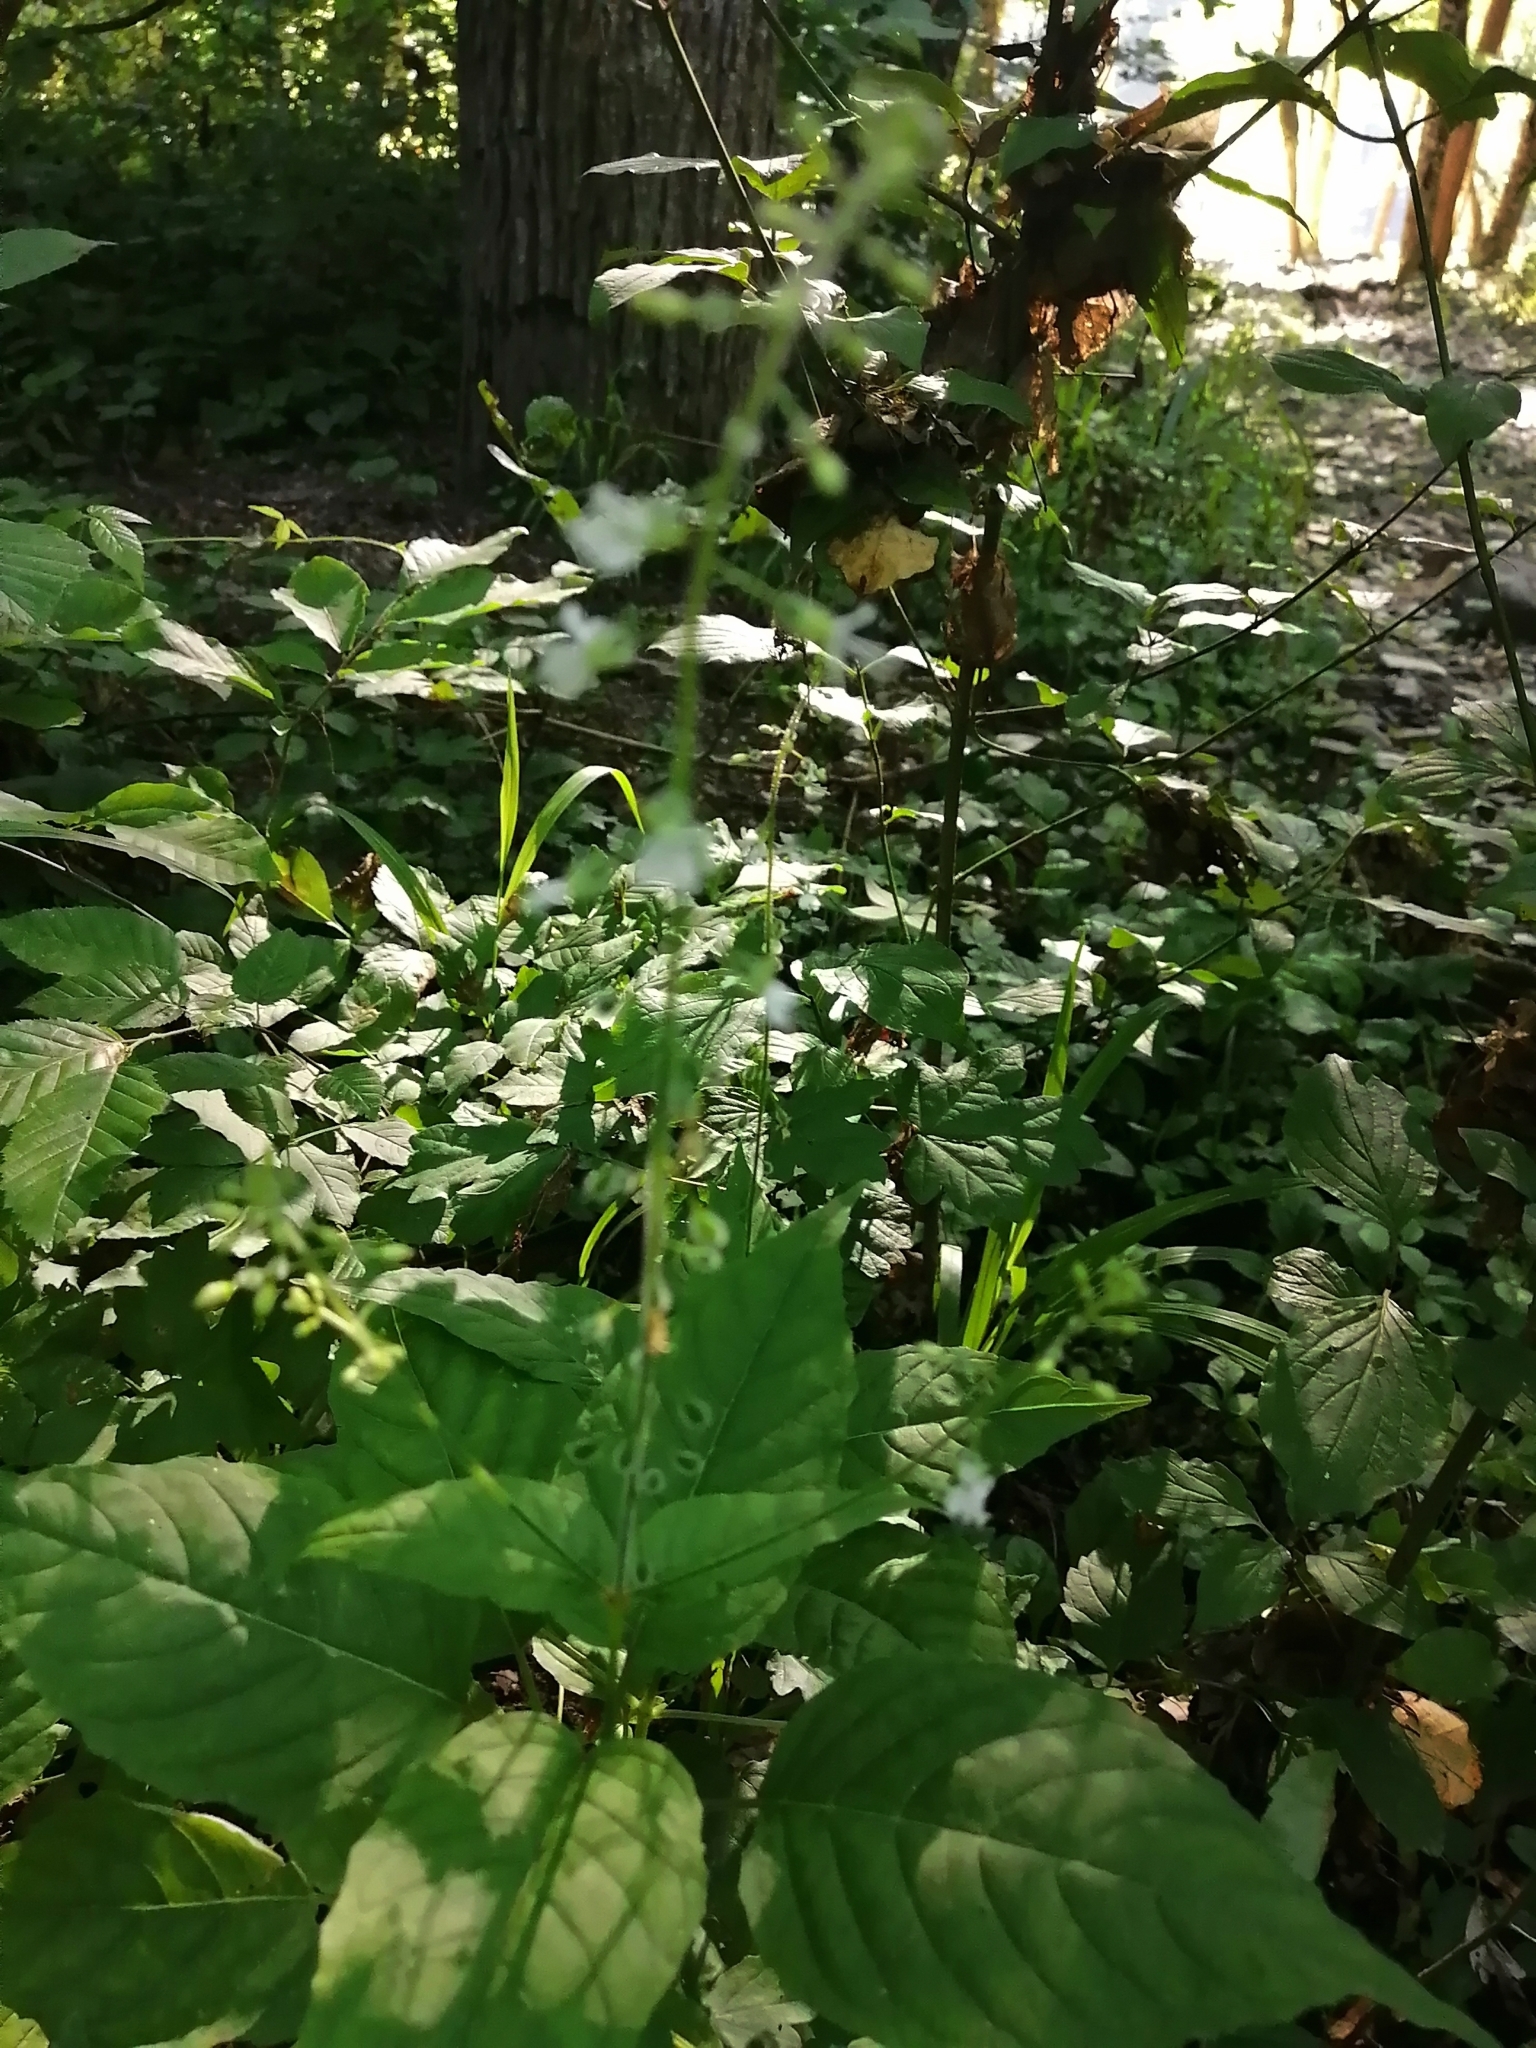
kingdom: Plantae
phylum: Tracheophyta
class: Magnoliopsida
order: Myrtales
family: Onagraceae
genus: Circaea
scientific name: Circaea lutetiana
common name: Enchanter's-nightshade
